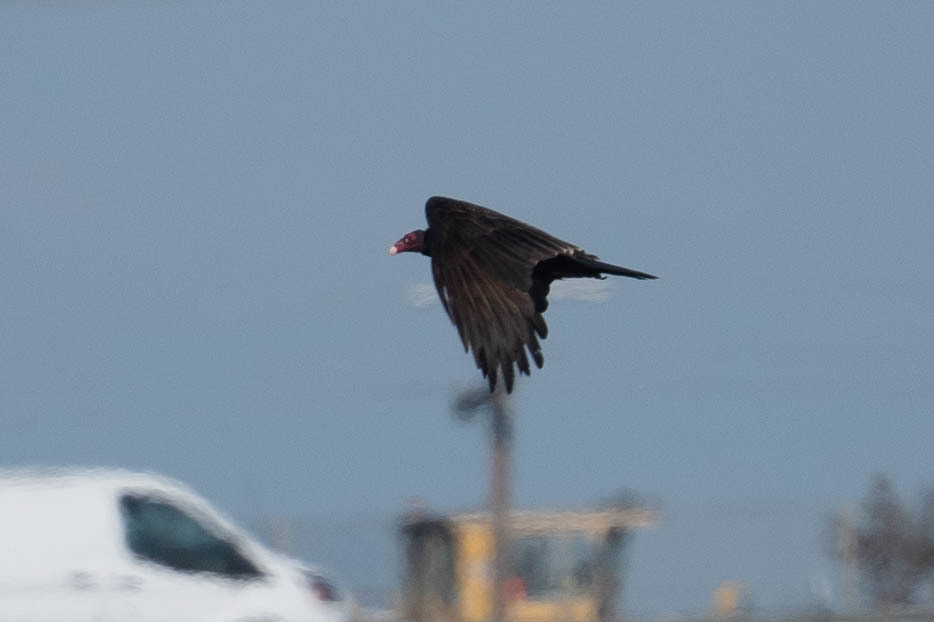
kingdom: Animalia
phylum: Chordata
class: Aves
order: Accipitriformes
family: Cathartidae
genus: Cathartes
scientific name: Cathartes aura
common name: Turkey vulture
